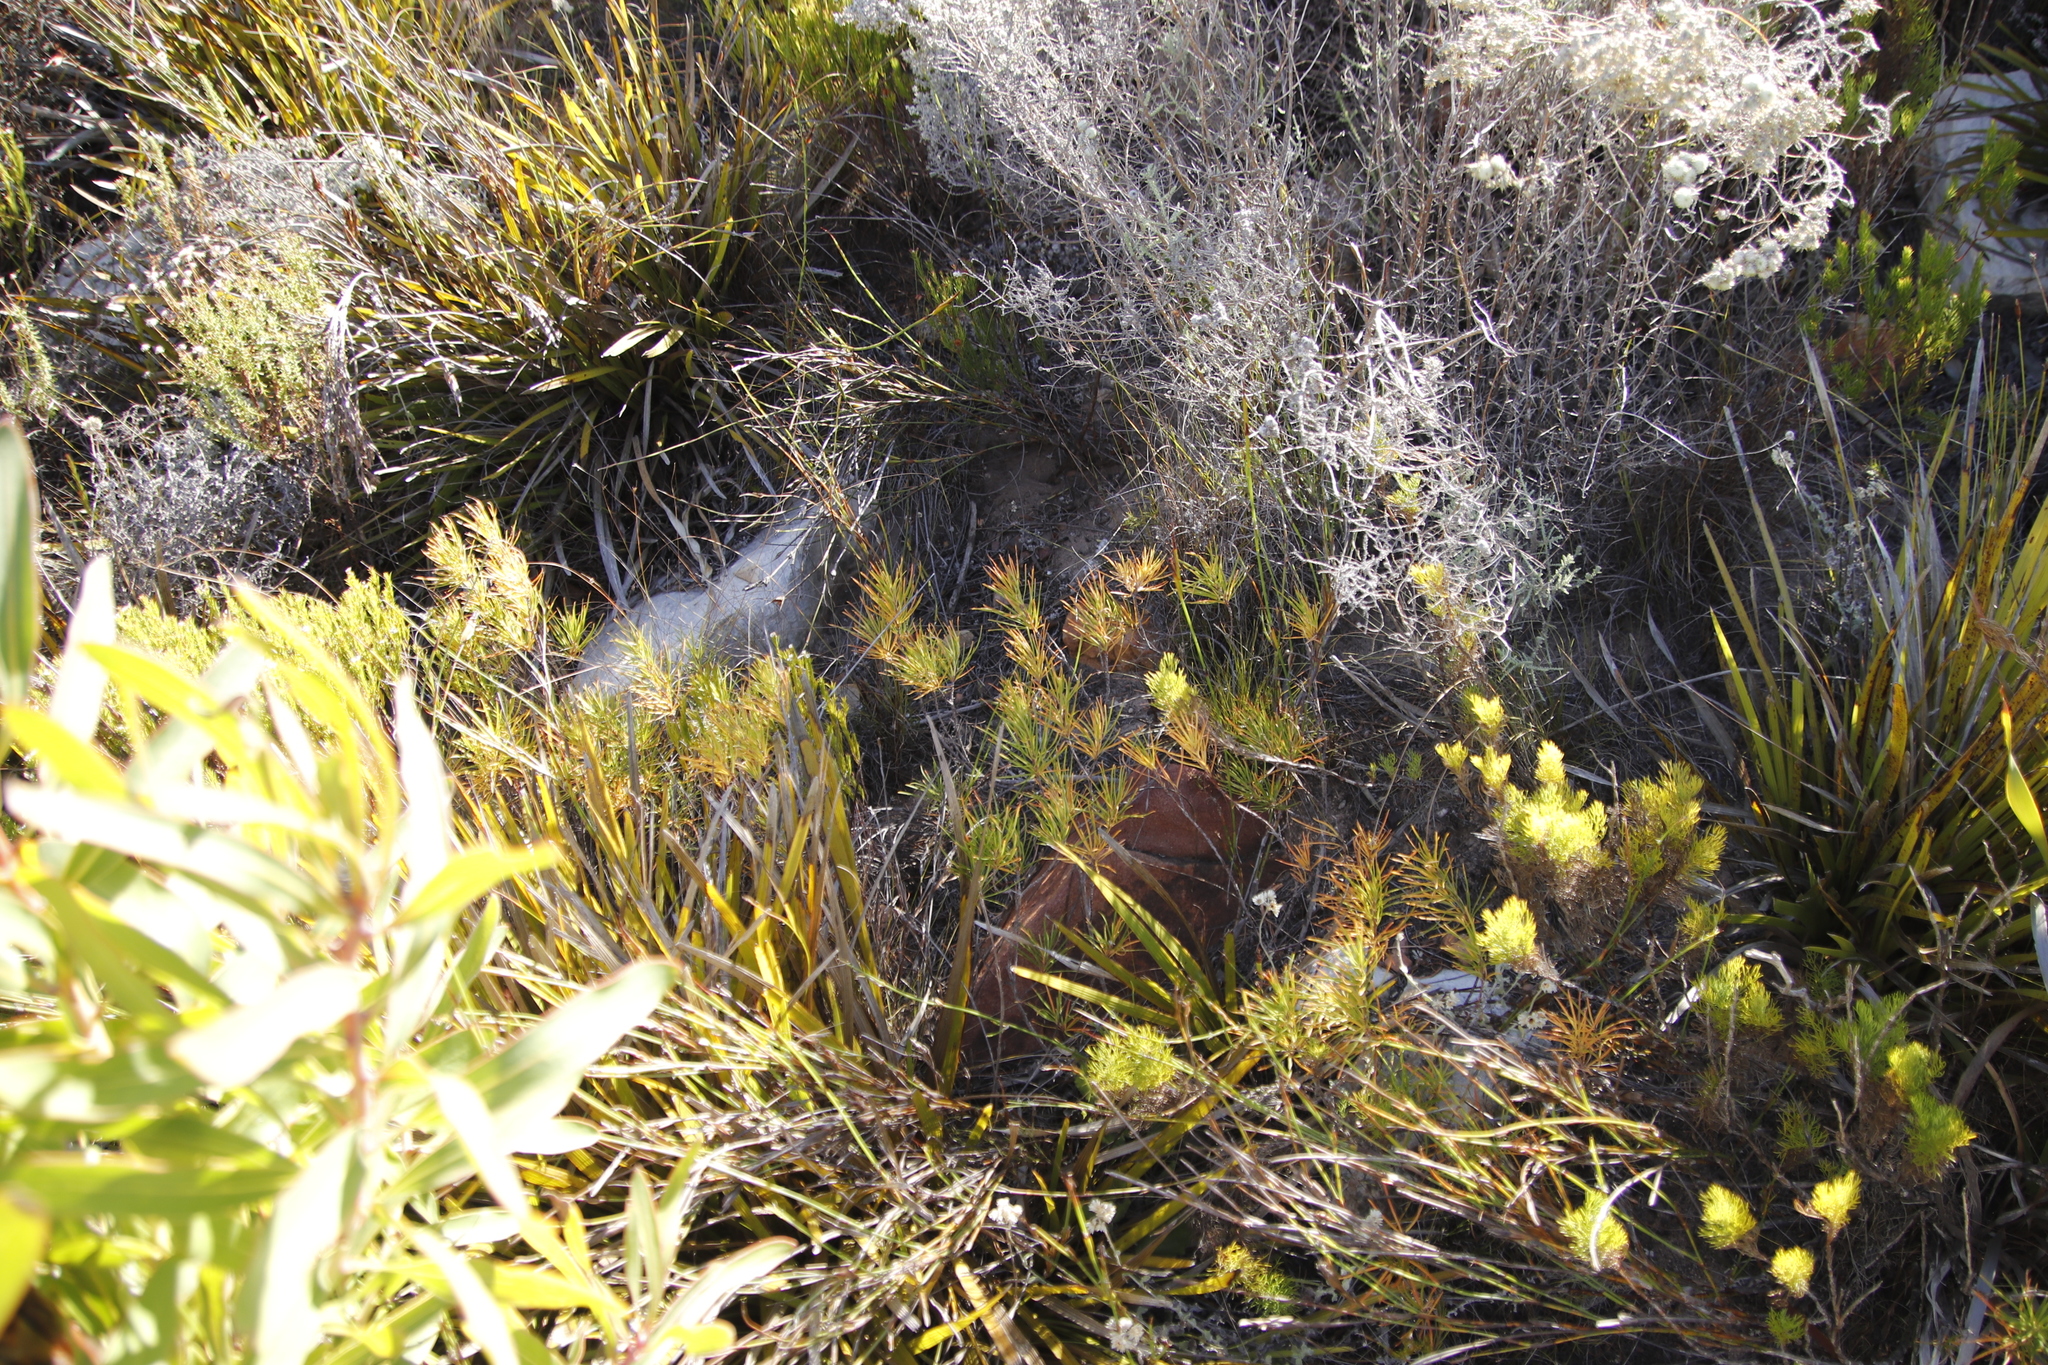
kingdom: Plantae
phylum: Tracheophyta
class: Magnoliopsida
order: Sapindales
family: Anacardiaceae
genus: Searsia
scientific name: Searsia rosmarinifolia
